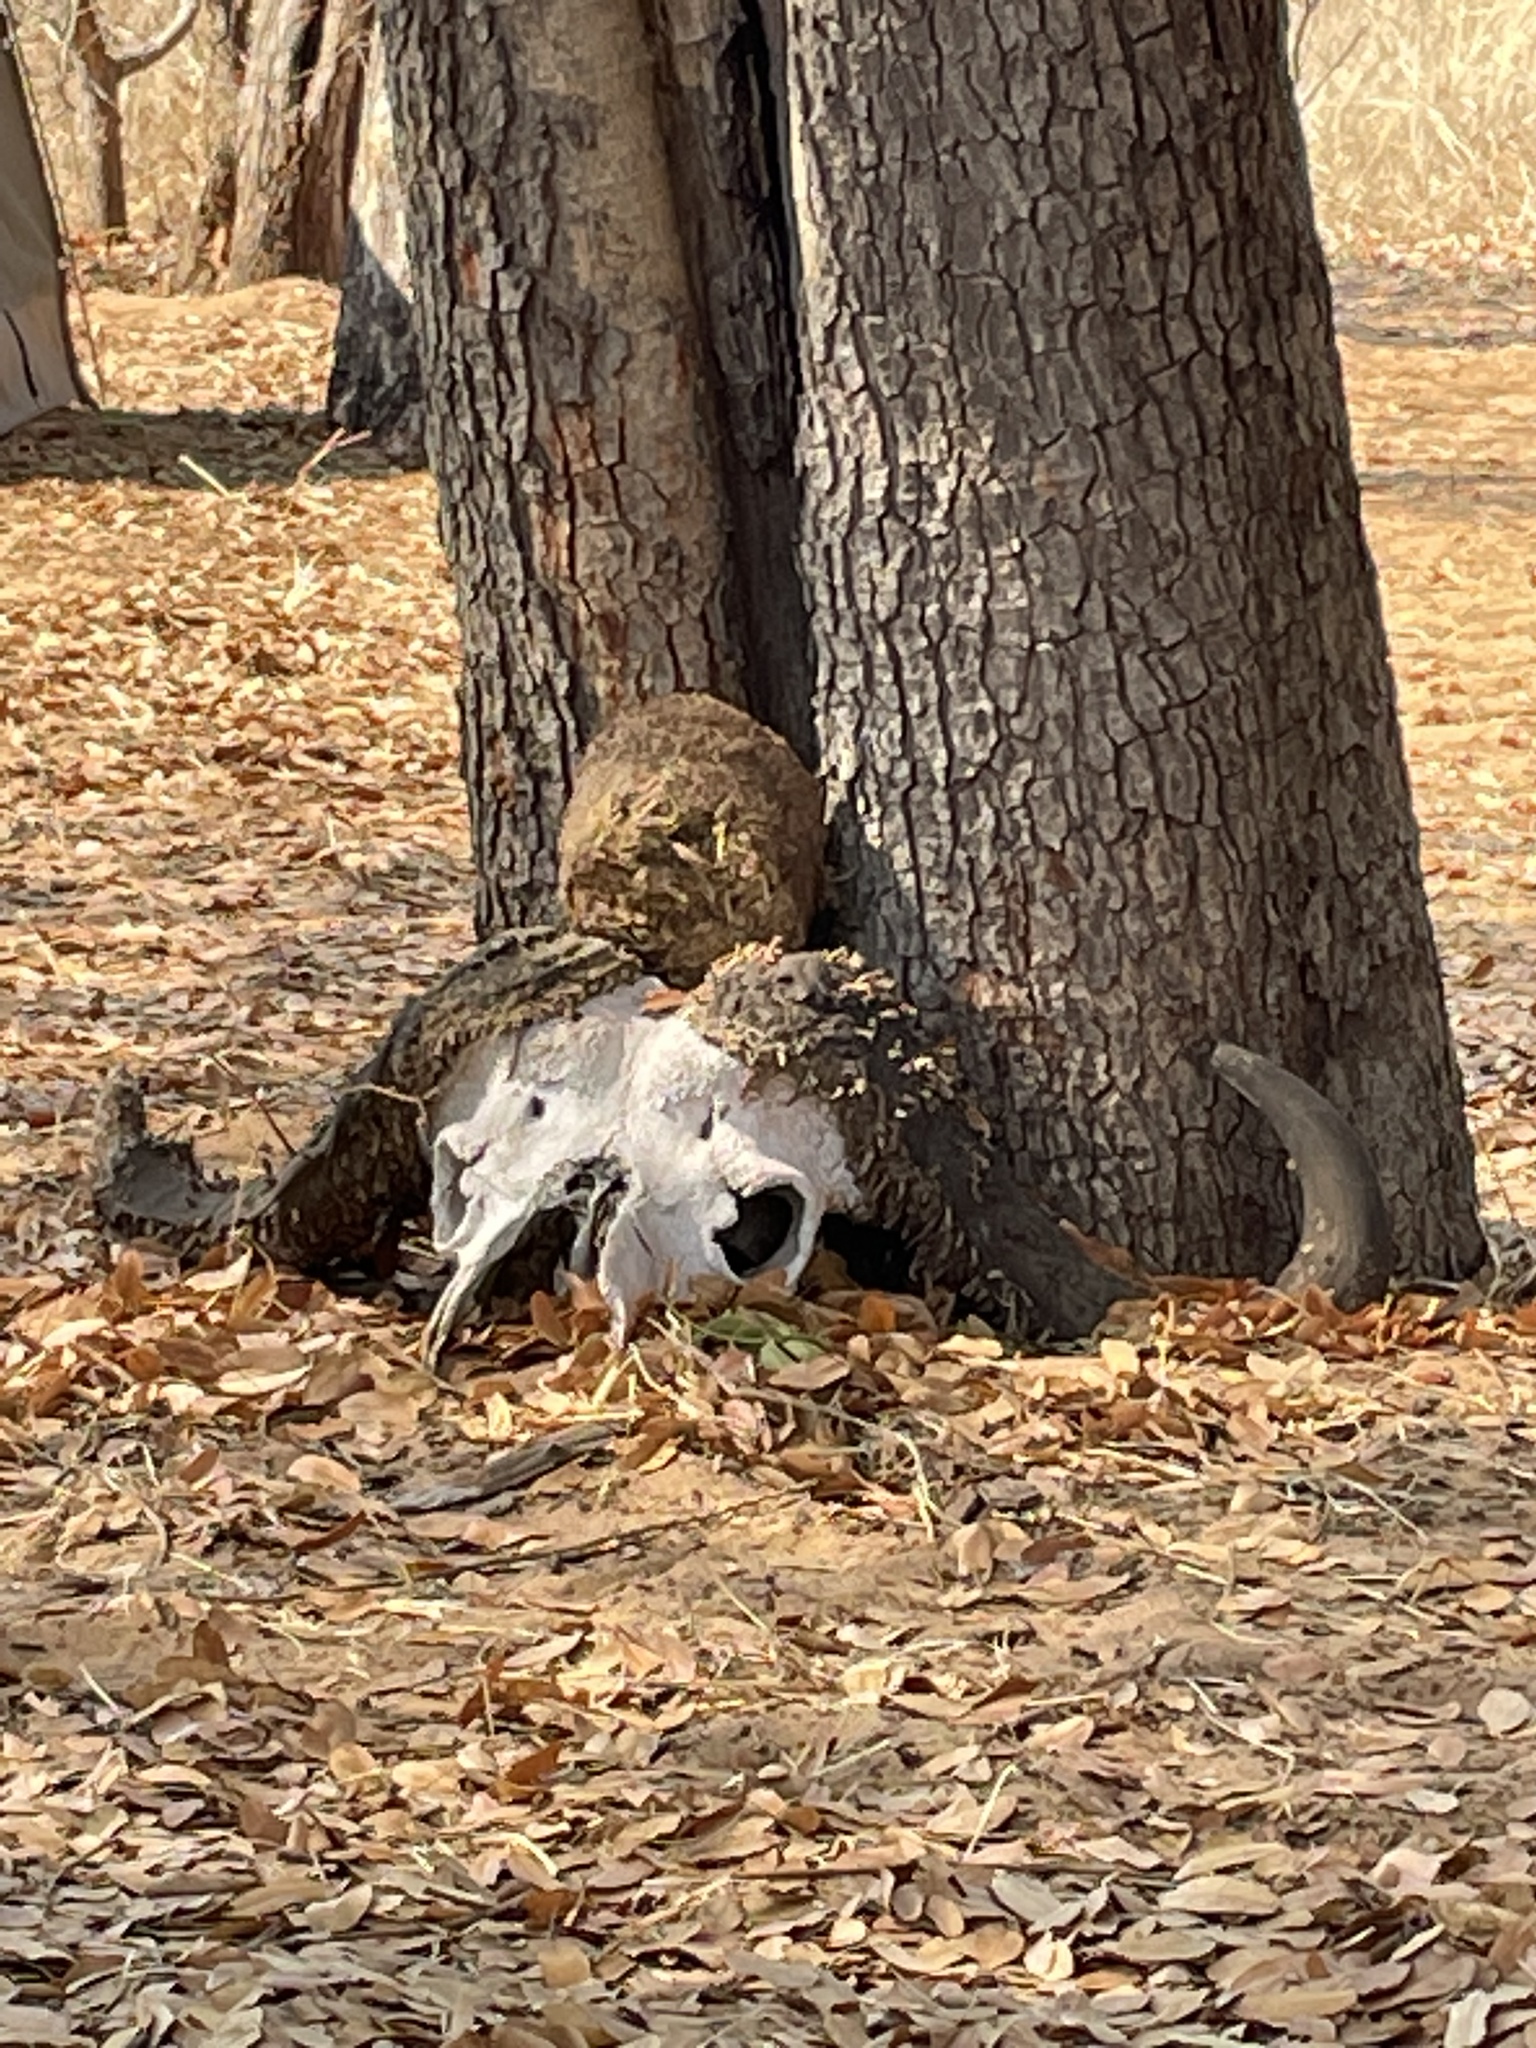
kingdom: Animalia
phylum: Arthropoda
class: Insecta
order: Lepidoptera
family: Tineidae
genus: Ceratophaga
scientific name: Ceratophaga vastellus
